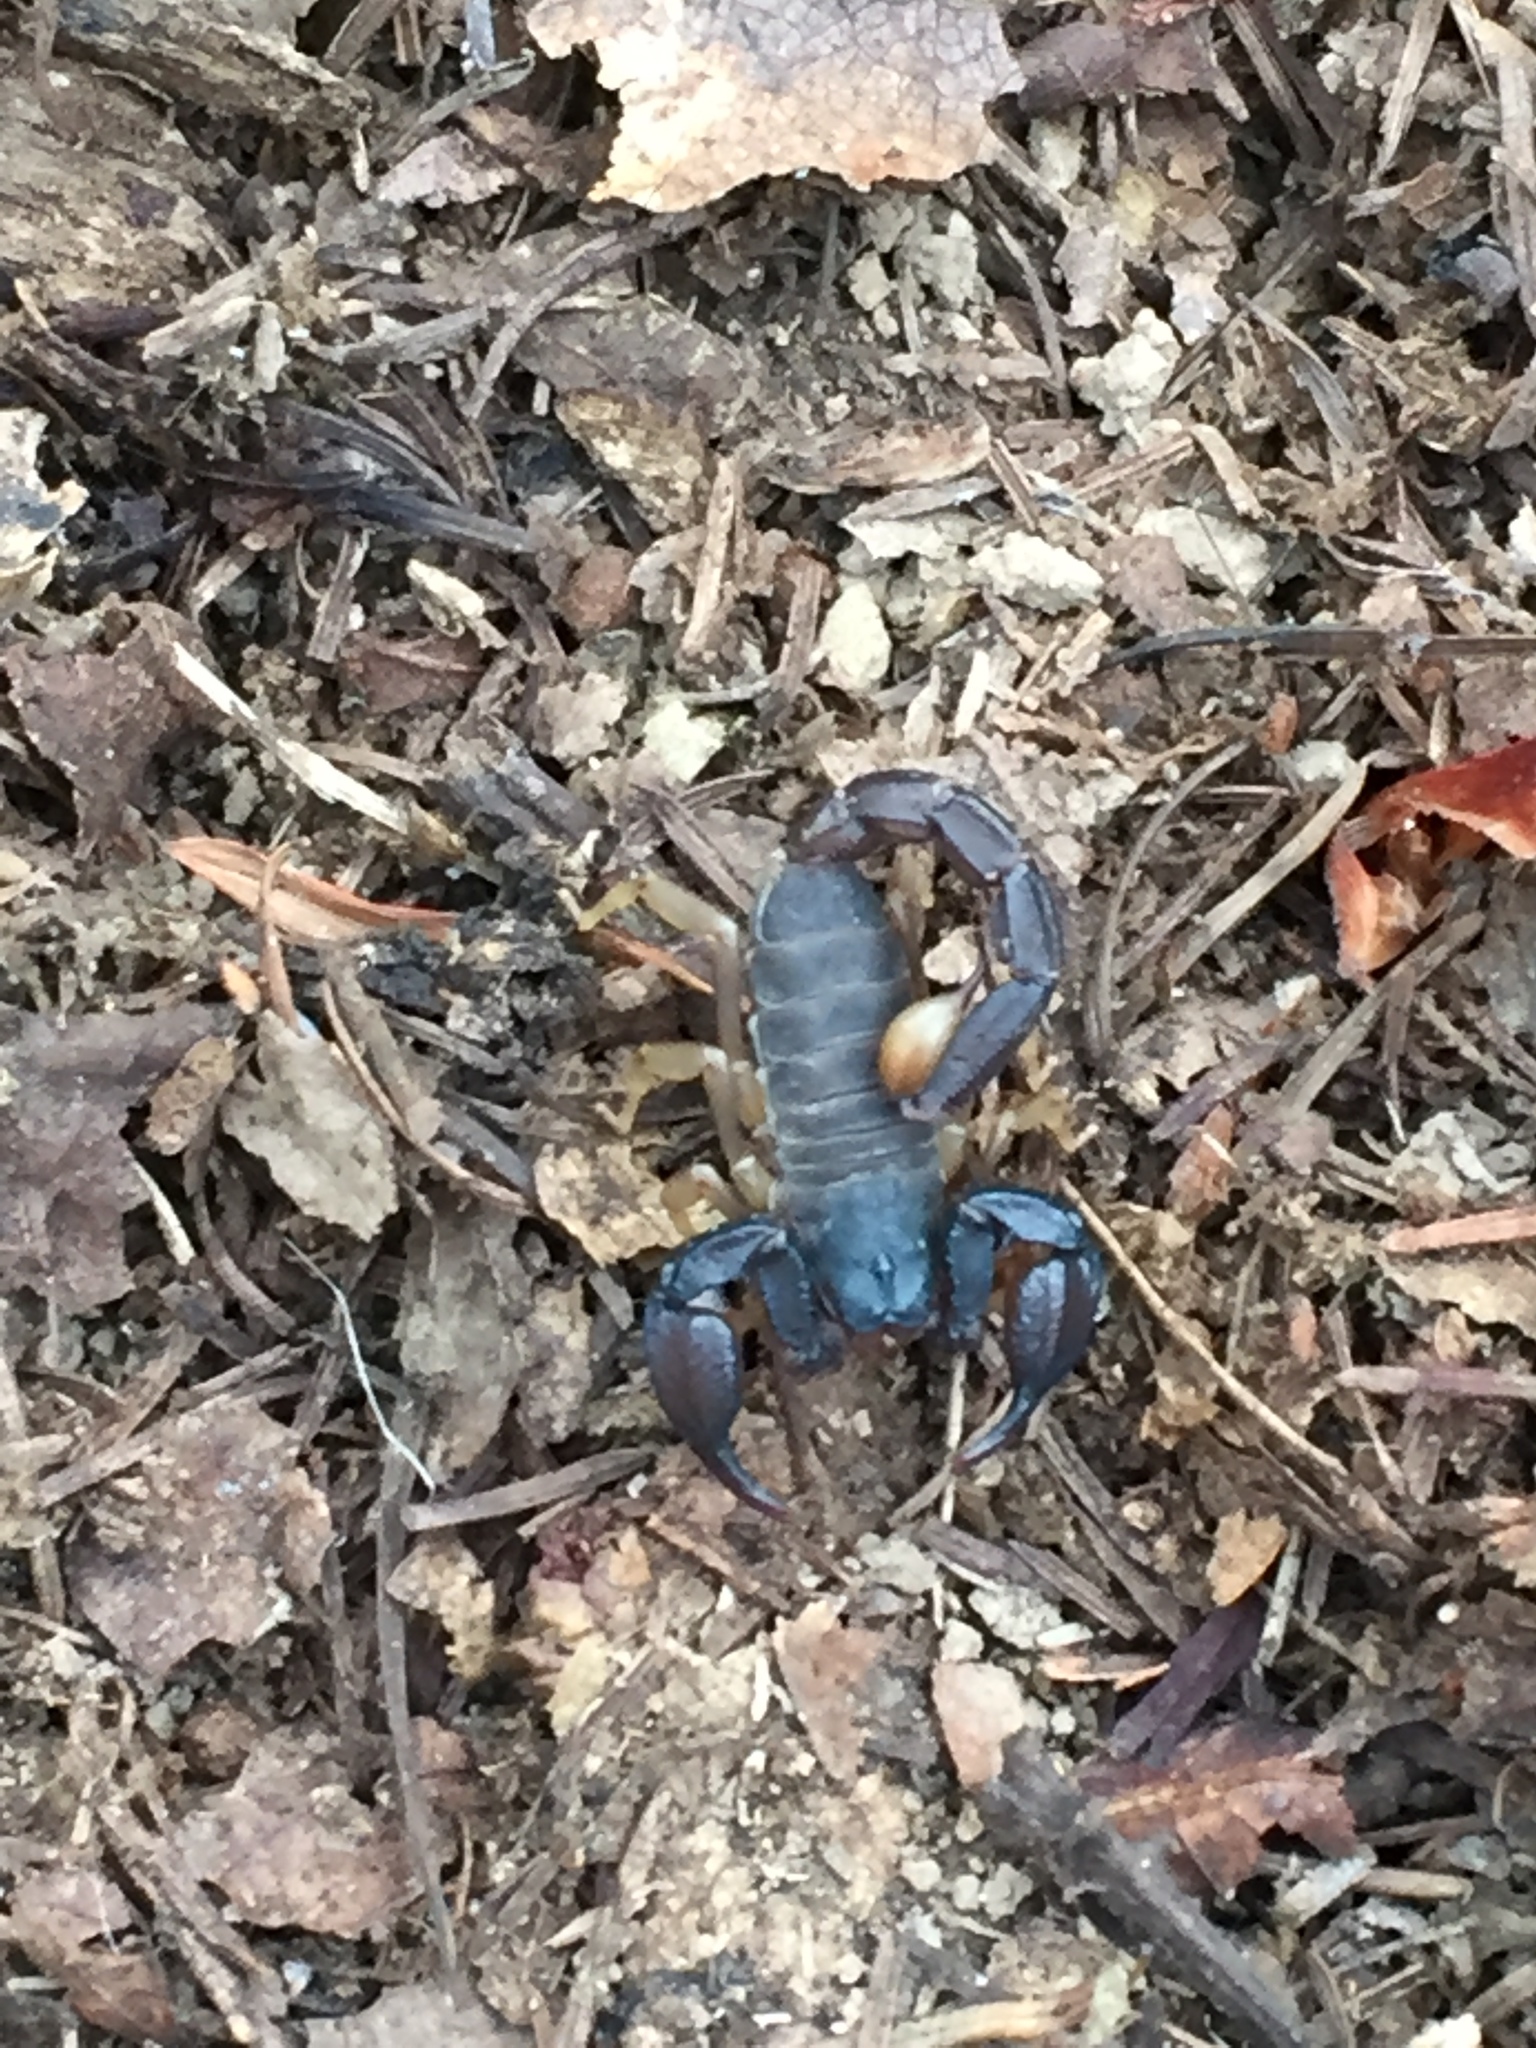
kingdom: Animalia
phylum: Arthropoda
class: Arachnida
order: Scorpiones
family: Chactidae
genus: Uroctonus
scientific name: Uroctonus mordax
